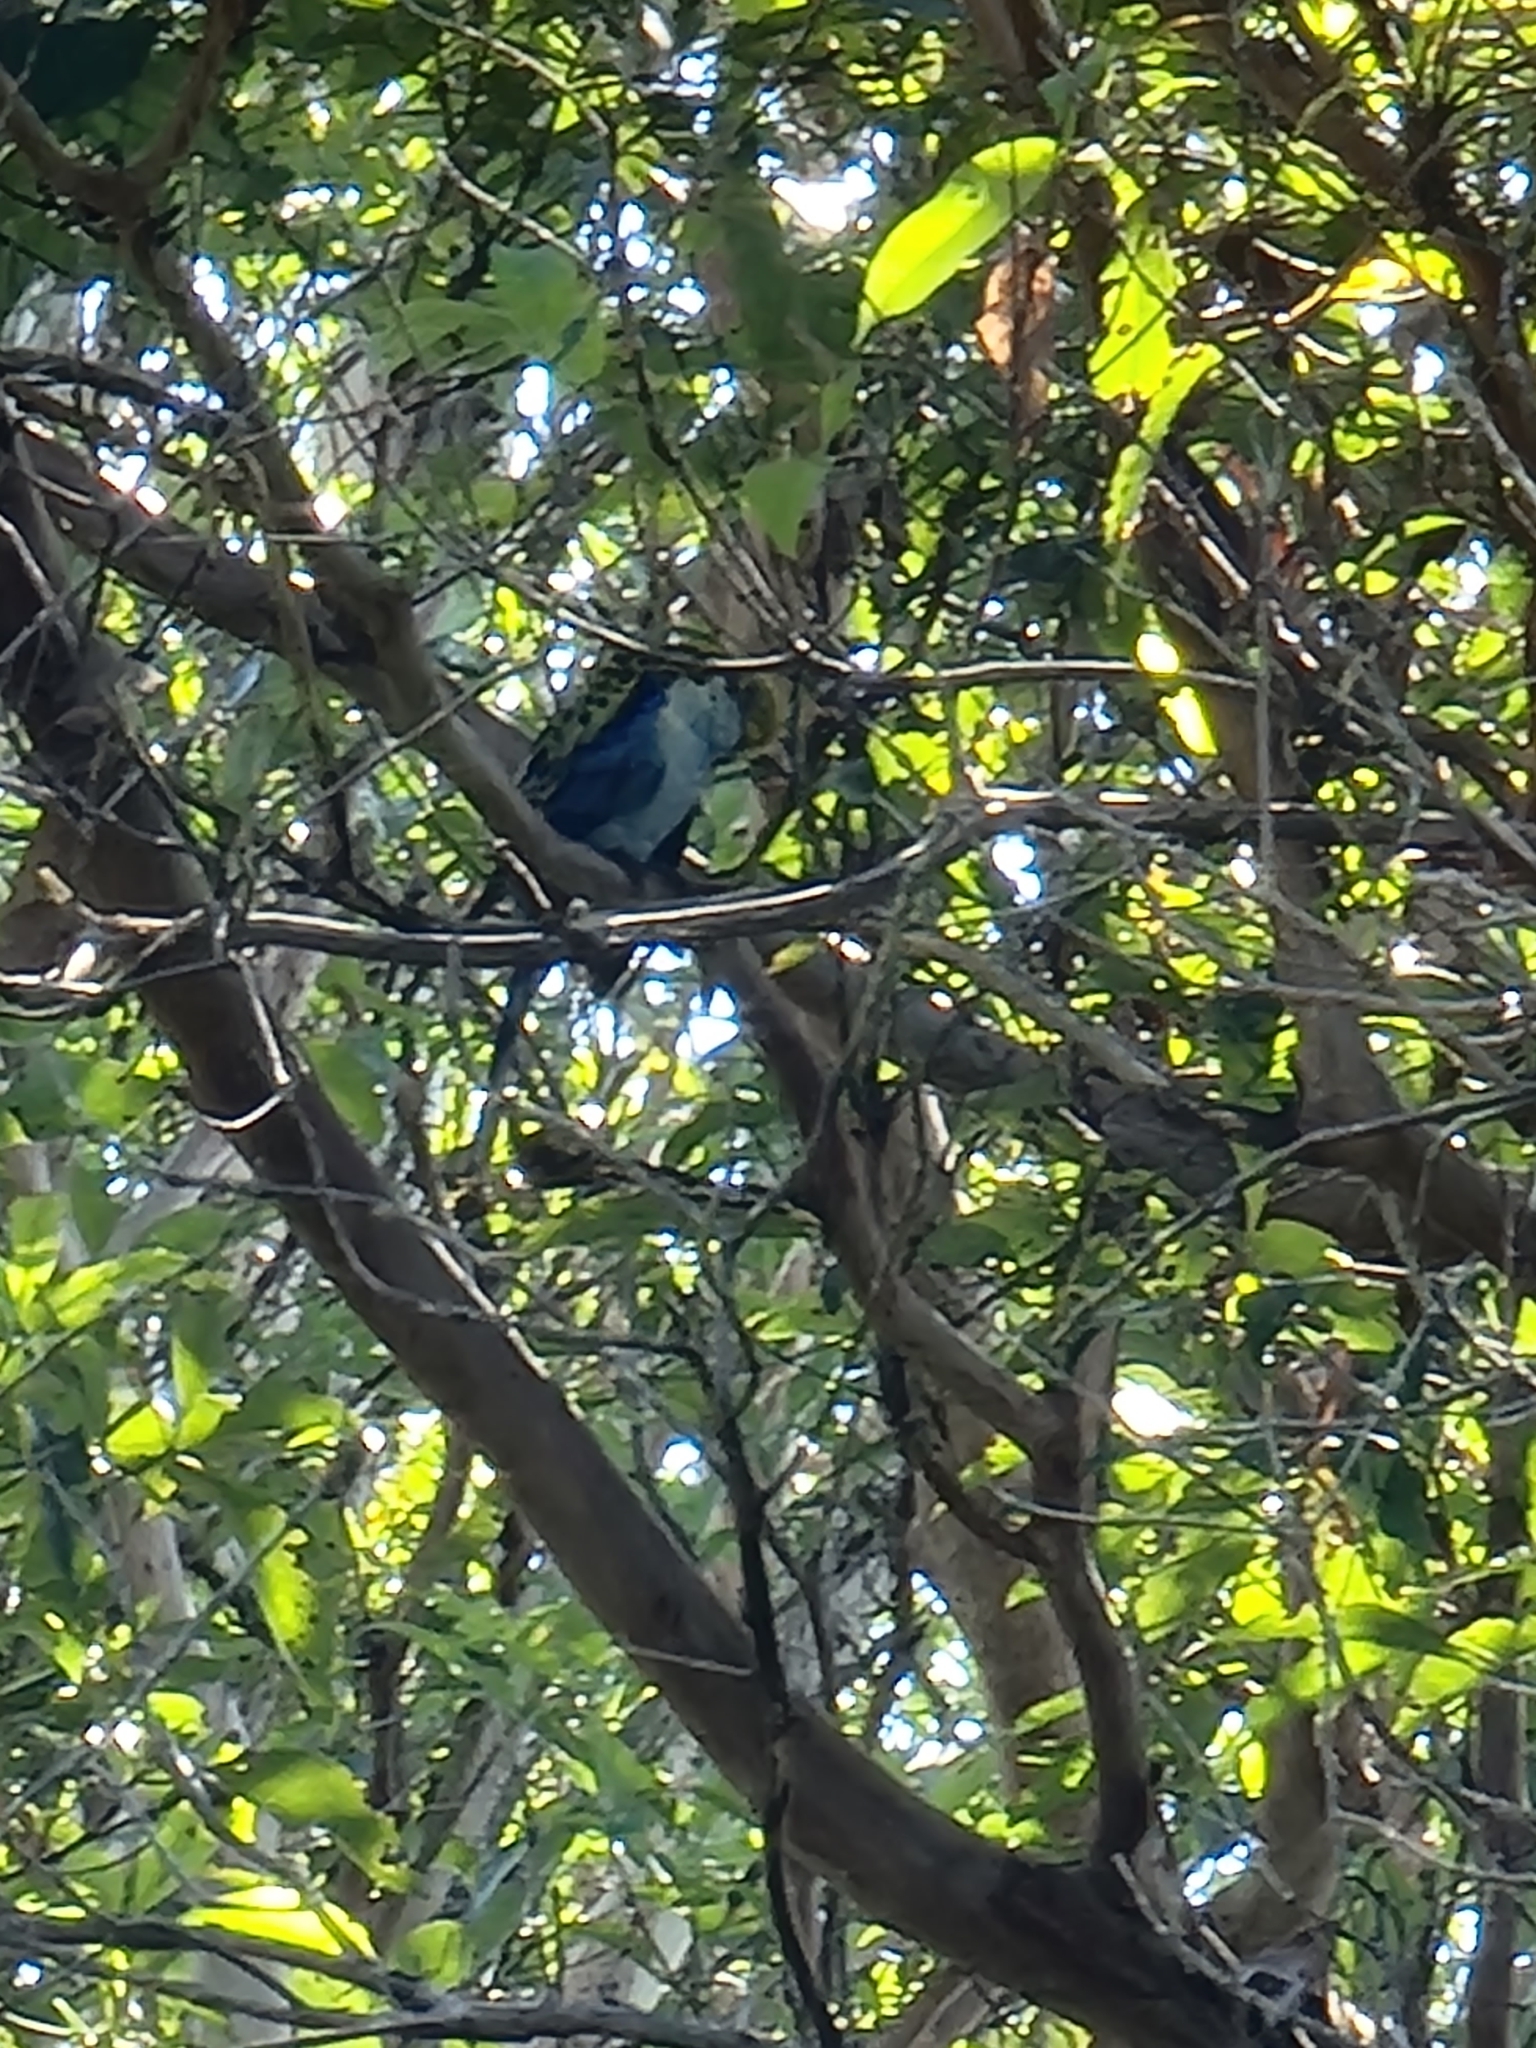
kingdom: Animalia
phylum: Chordata
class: Aves
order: Psittaciformes
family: Psittacidae
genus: Platycercus
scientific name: Platycercus adscitus
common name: Pale-headed rosella
